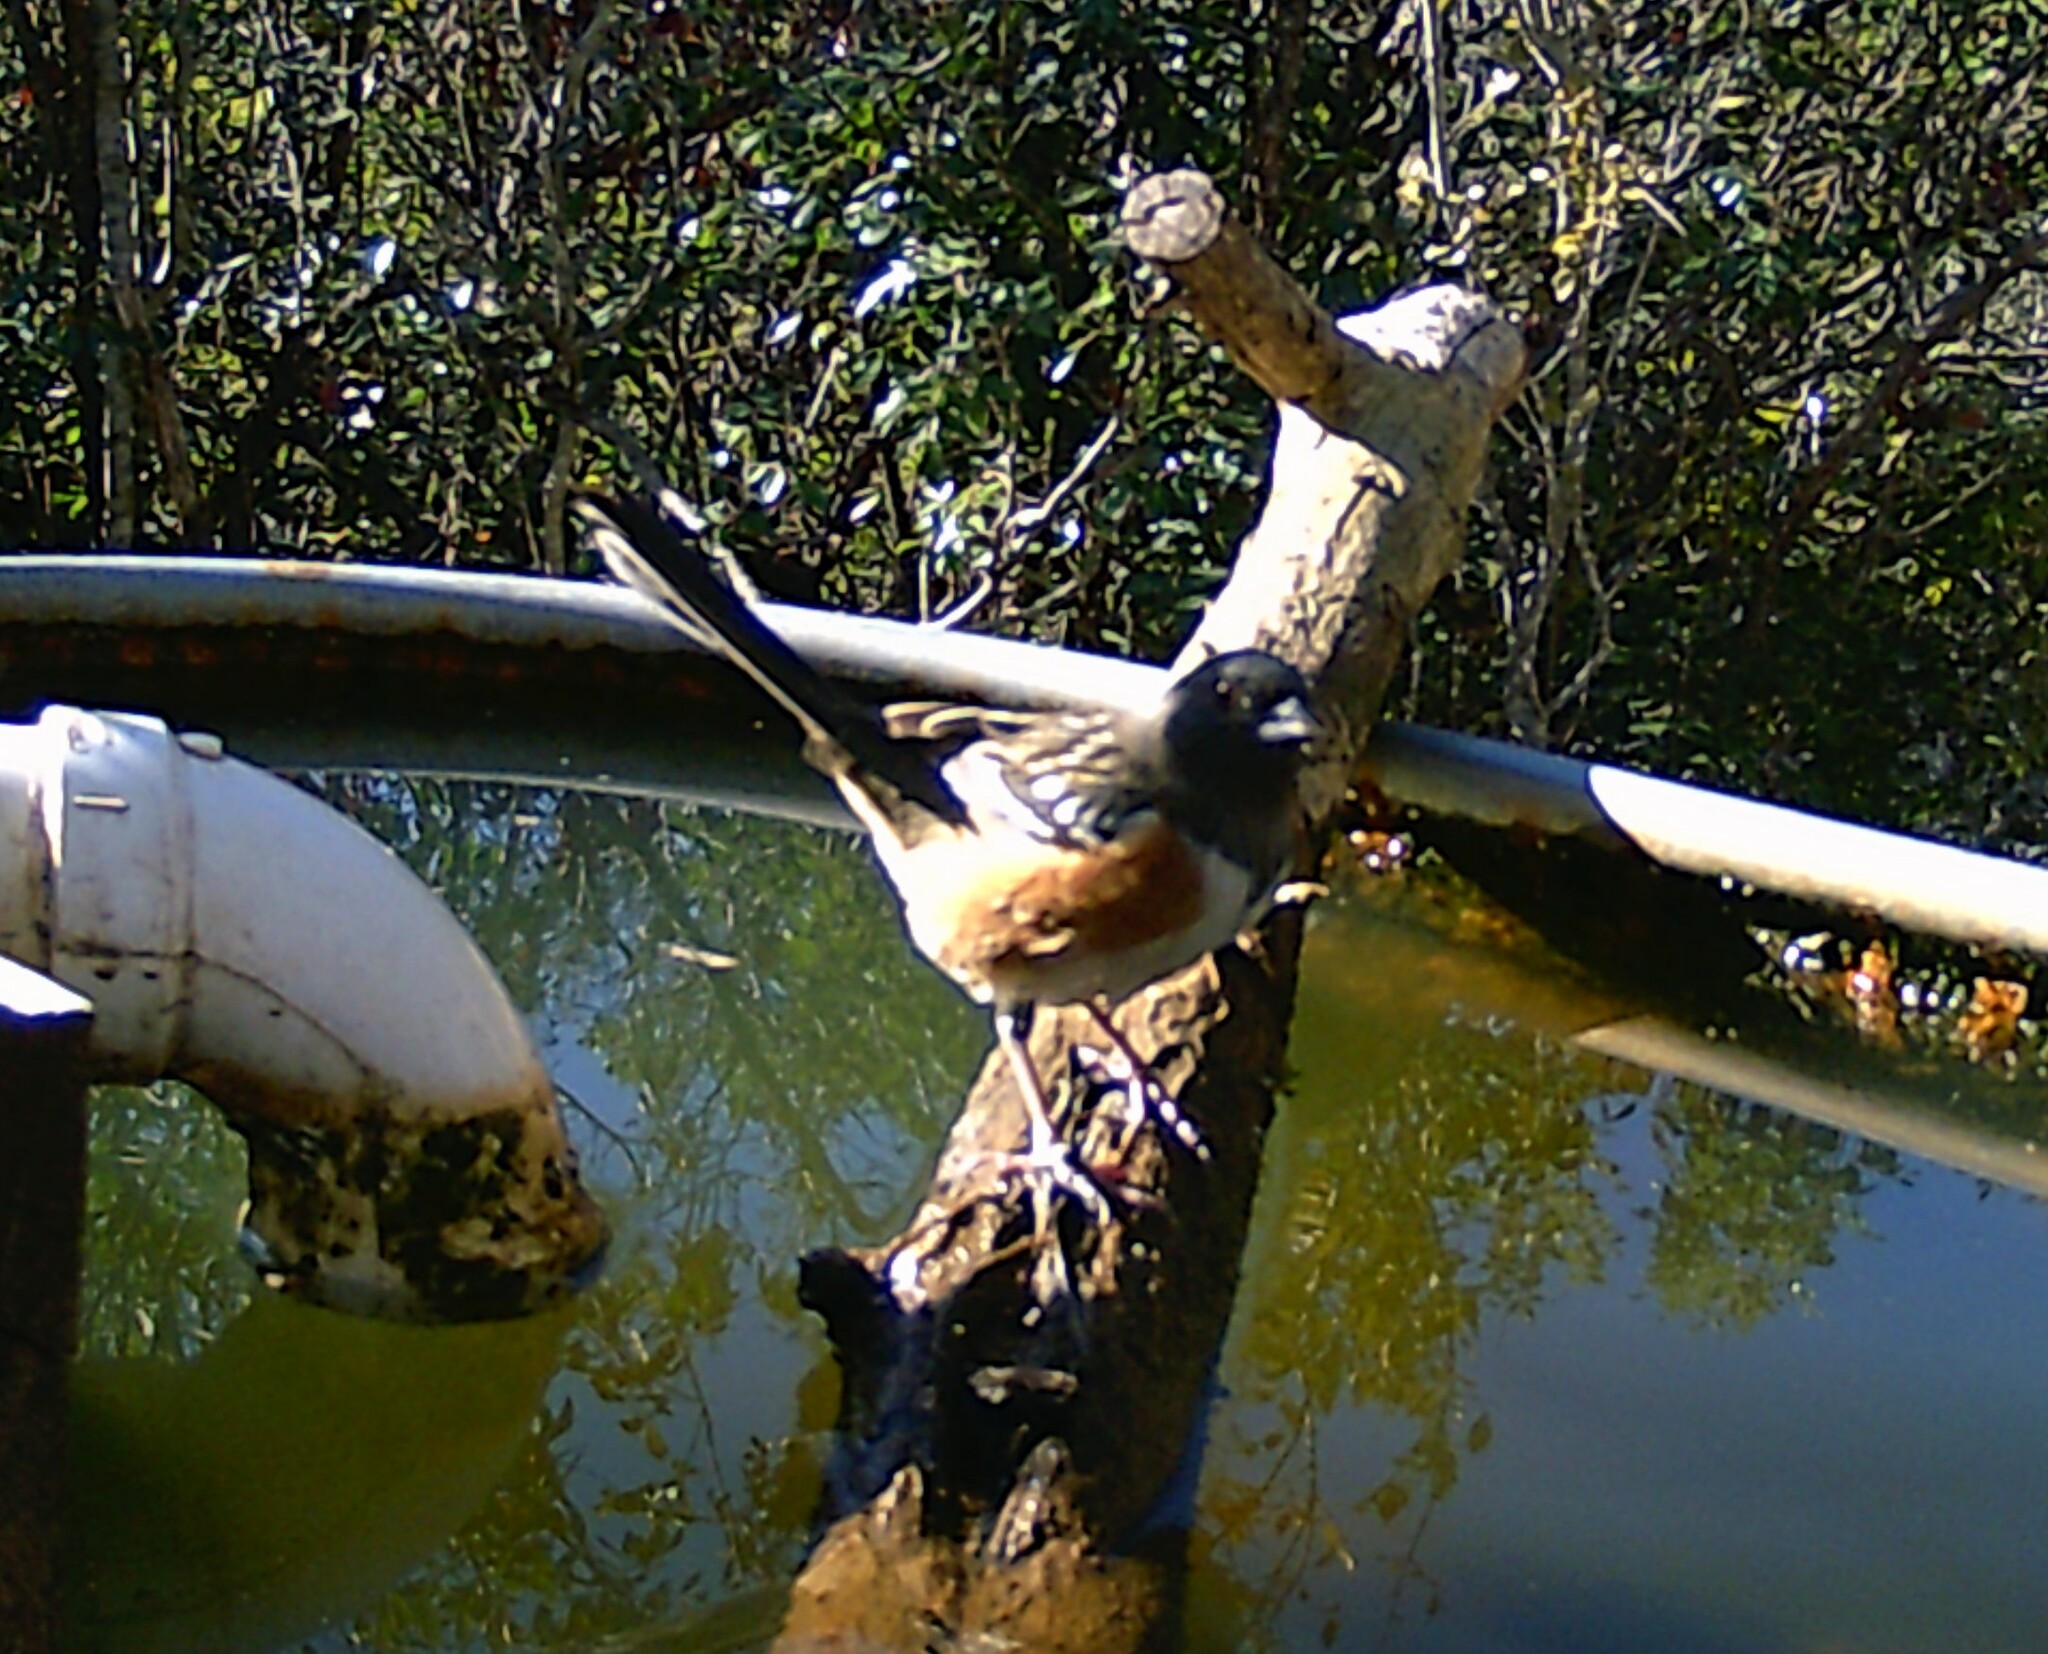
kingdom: Animalia
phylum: Chordata
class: Aves
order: Passeriformes
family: Passerellidae
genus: Pipilo
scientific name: Pipilo maculatus
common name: Spotted towhee
